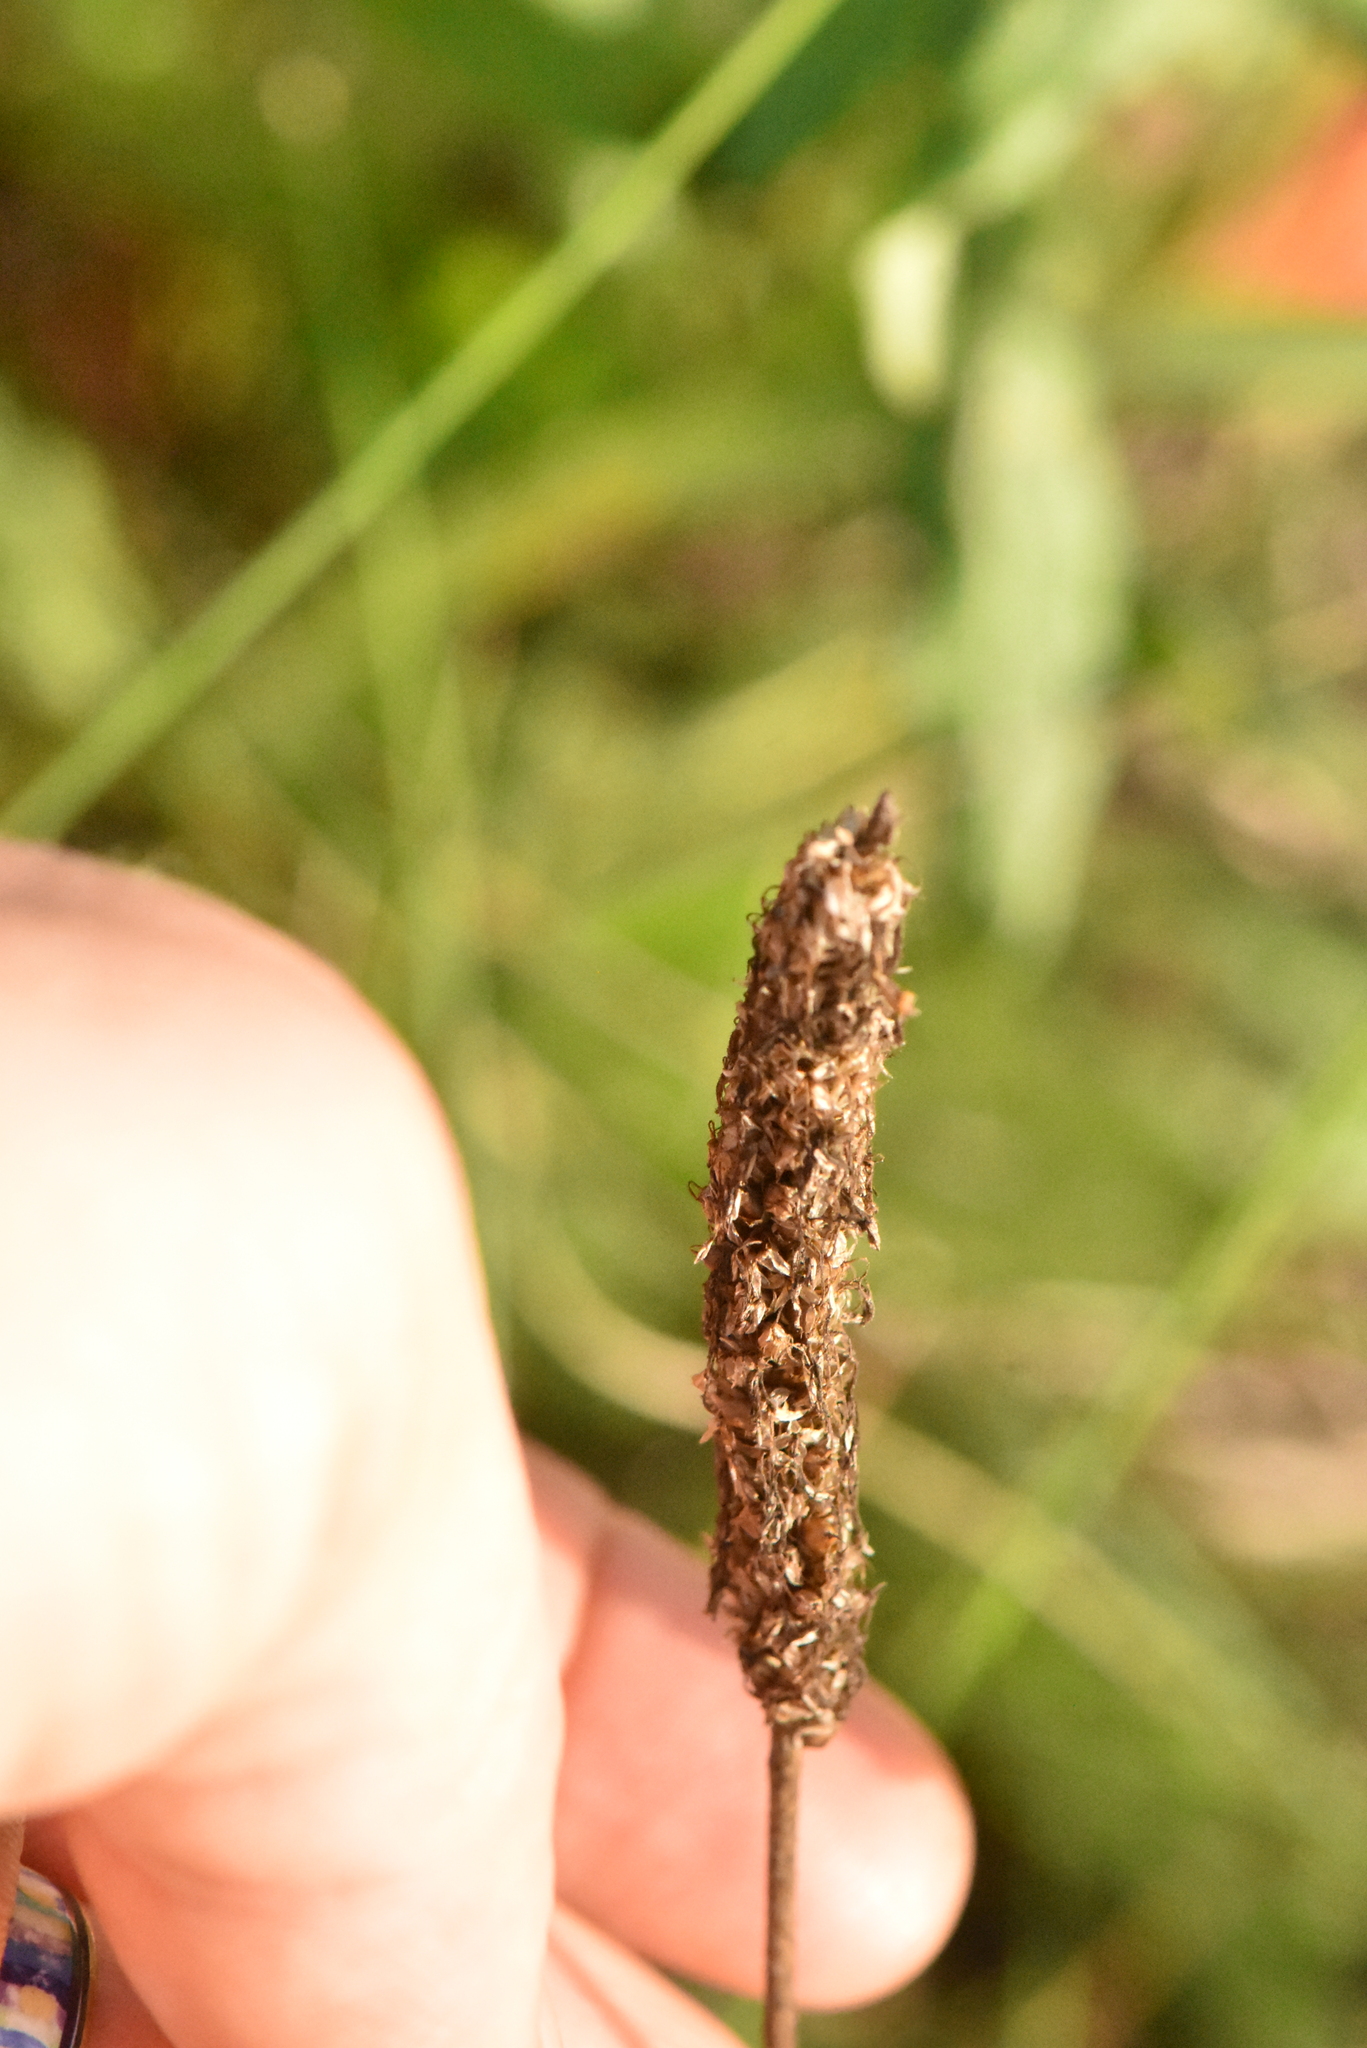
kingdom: Plantae
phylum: Tracheophyta
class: Magnoliopsida
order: Lamiales
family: Plantaginaceae
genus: Plantago
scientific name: Plantago media
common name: Hoary plantain
